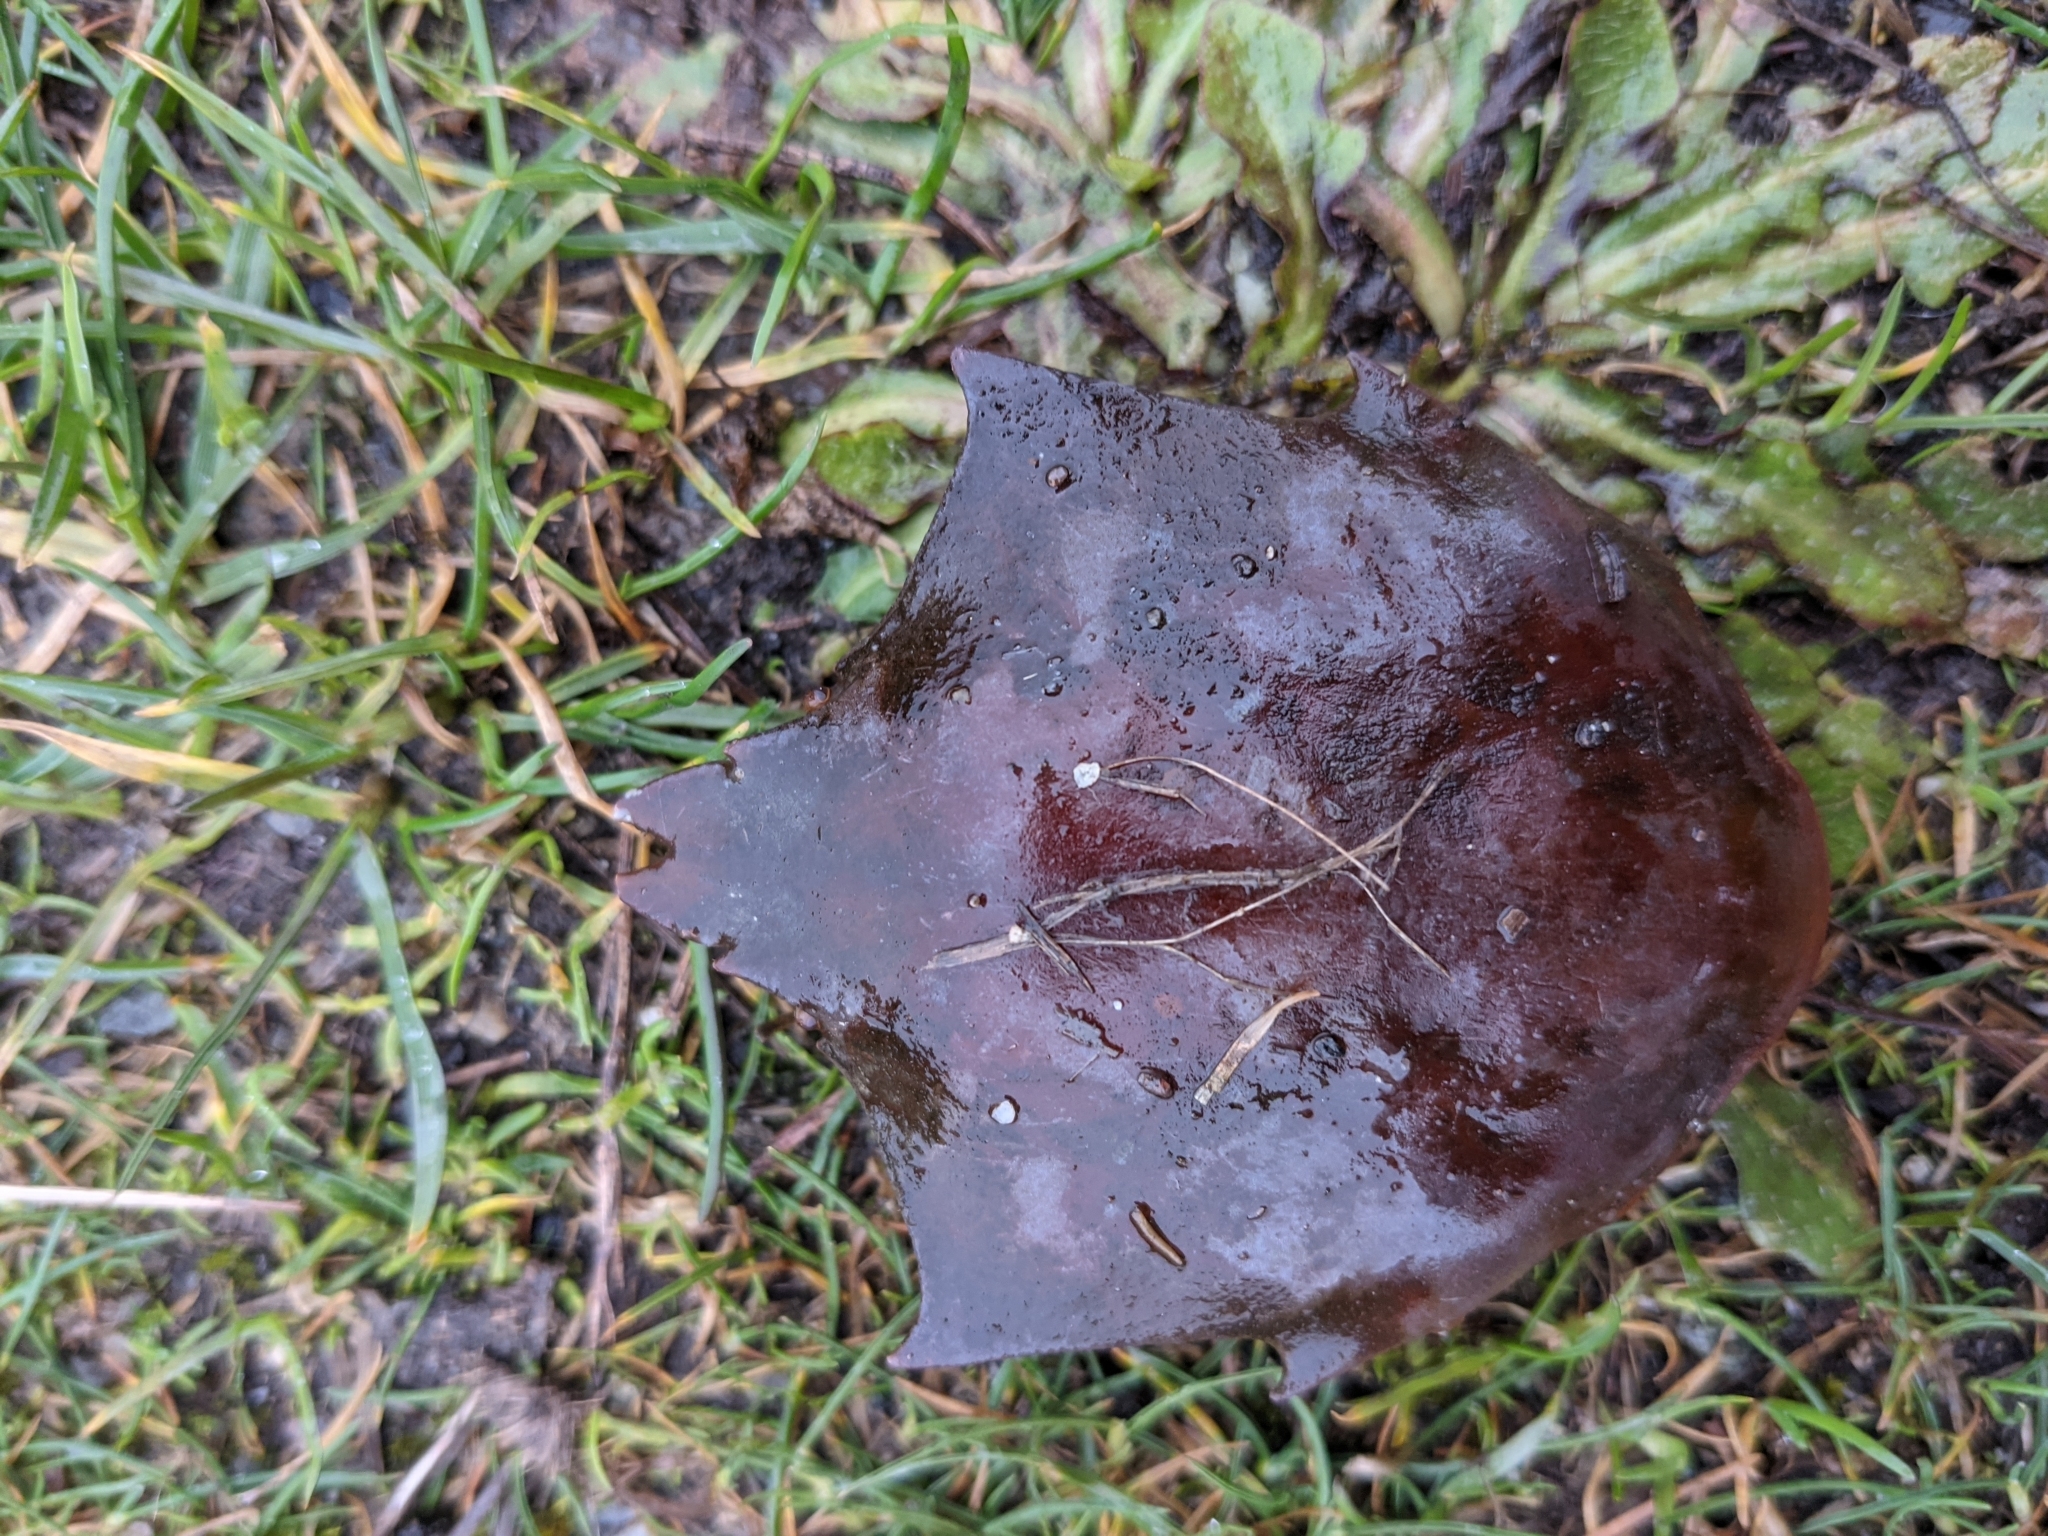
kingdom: Animalia
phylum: Arthropoda
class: Malacostraca
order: Decapoda
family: Epialtidae
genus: Pugettia
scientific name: Pugettia producta
